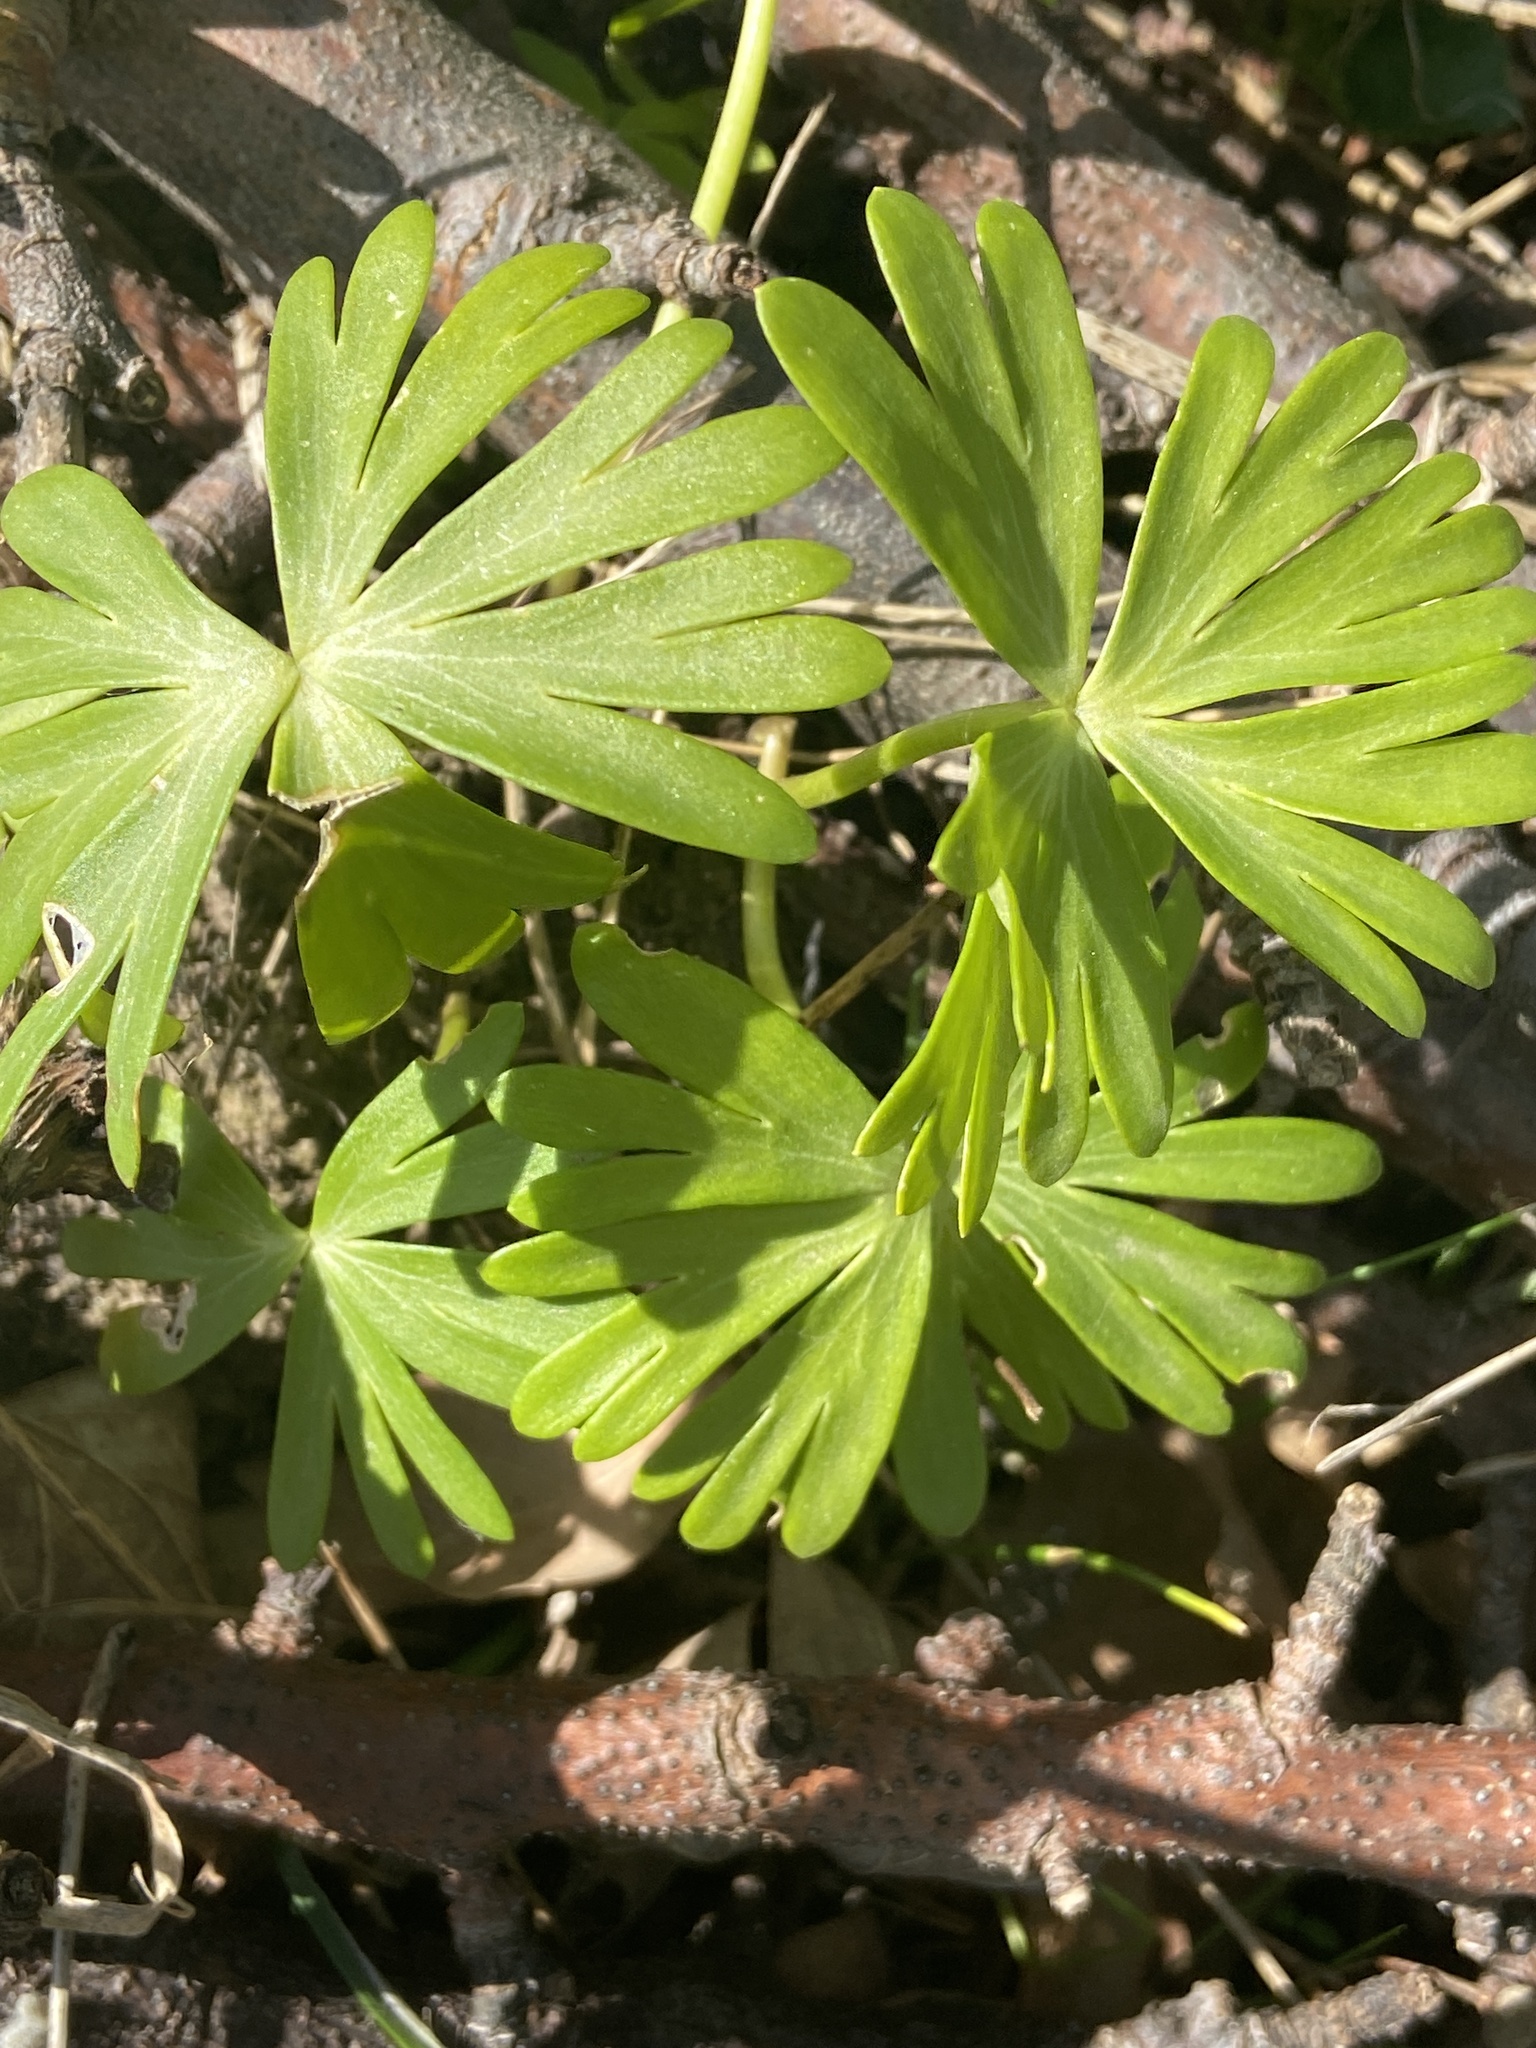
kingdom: Plantae
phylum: Tracheophyta
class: Magnoliopsida
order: Ranunculales
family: Ranunculaceae
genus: Eranthis
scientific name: Eranthis hyemalis
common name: Winter aconite
